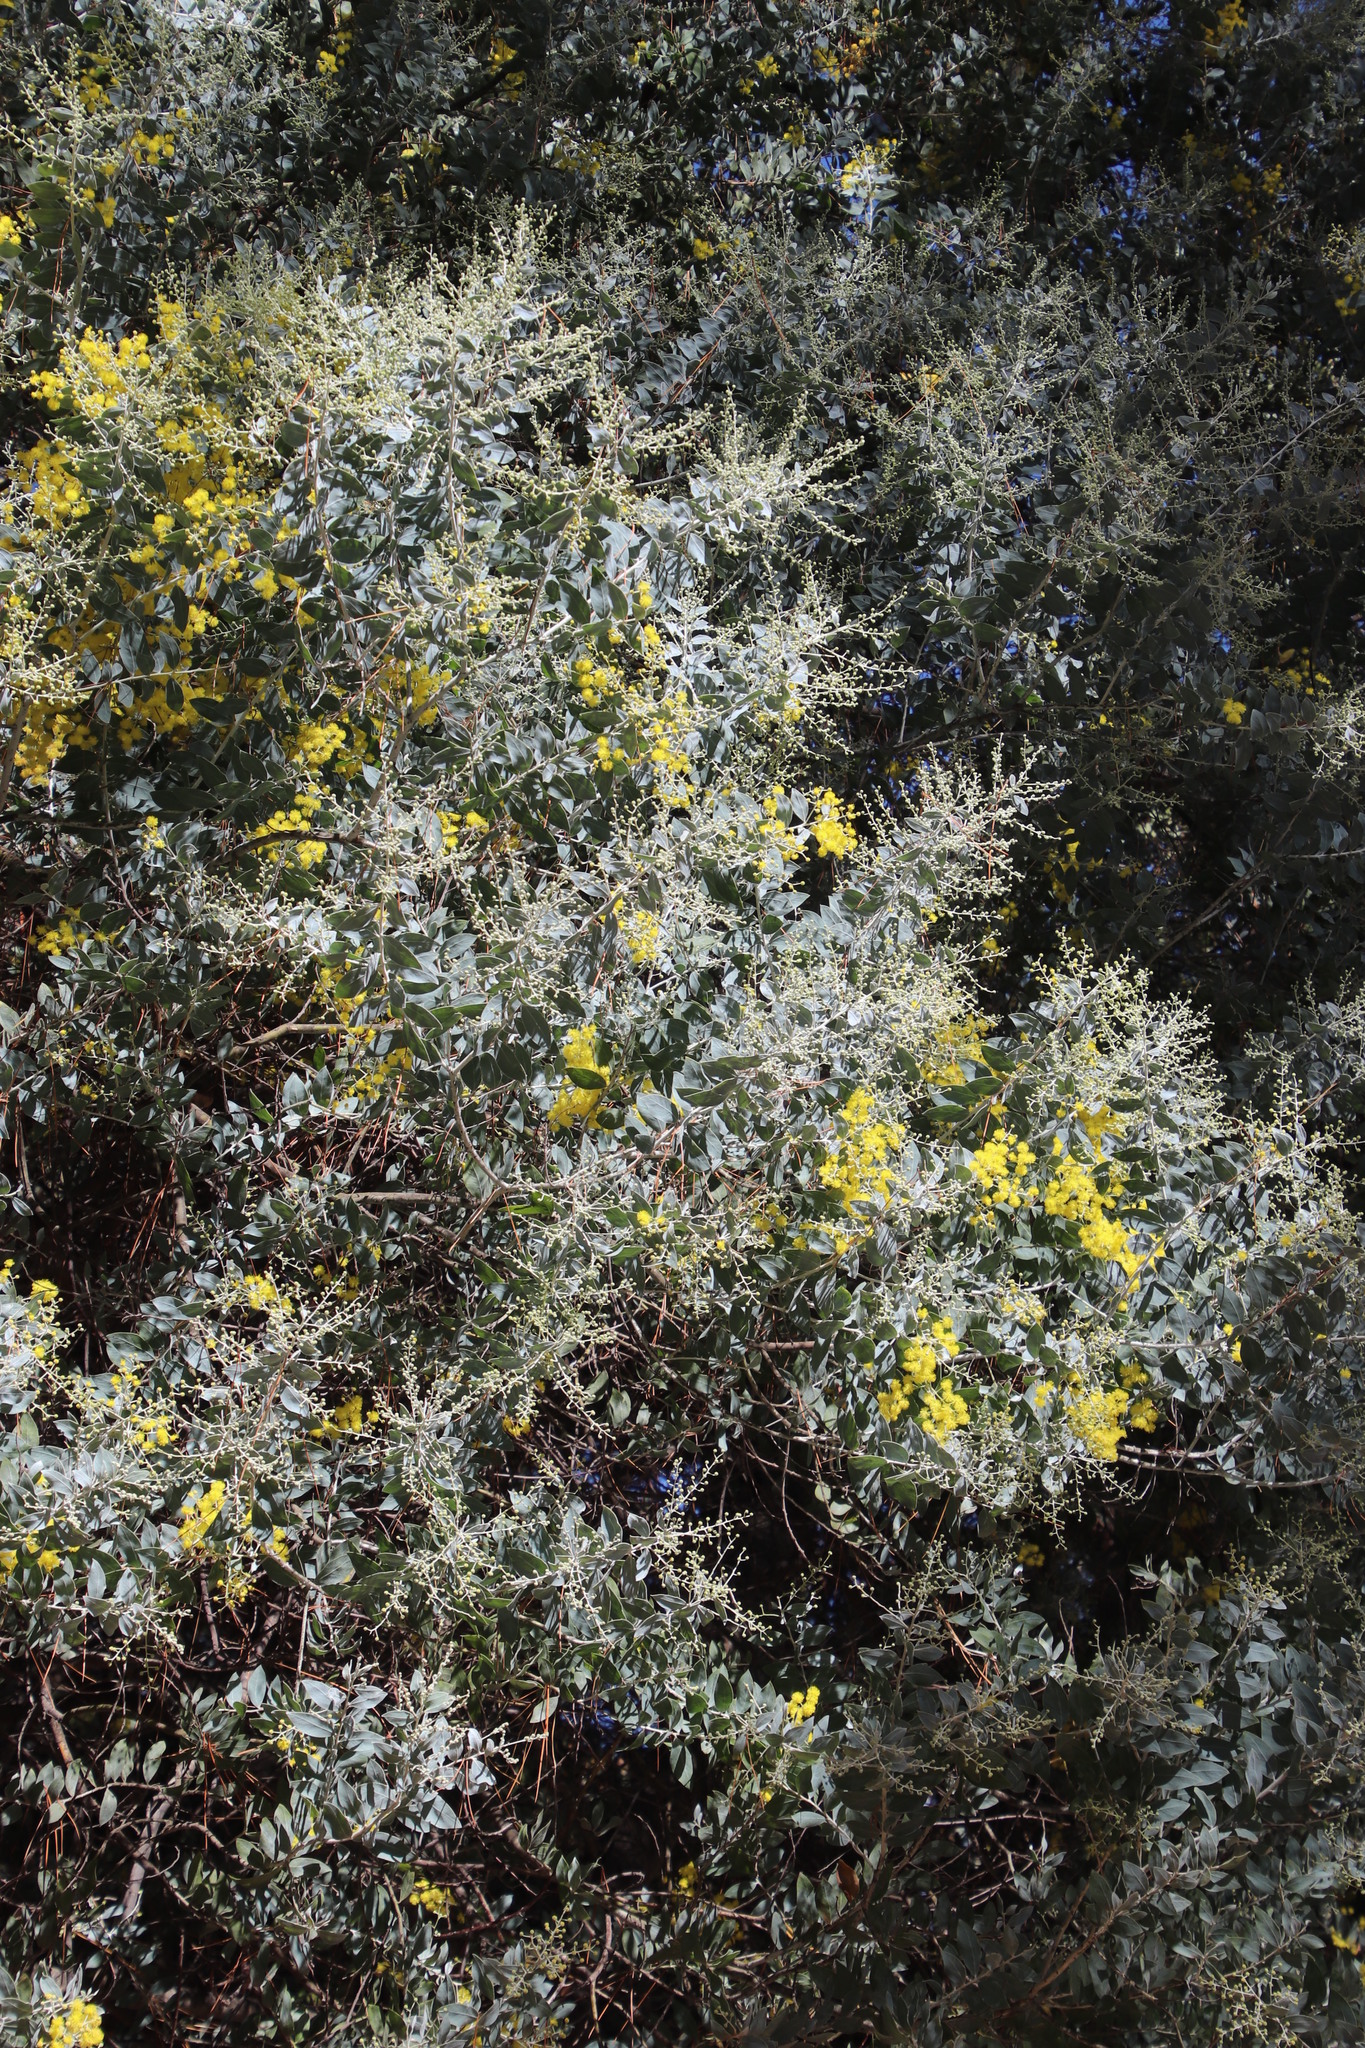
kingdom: Plantae
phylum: Tracheophyta
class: Magnoliopsida
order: Fabales
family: Fabaceae
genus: Acacia
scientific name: Acacia podalyriifolia
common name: Pearl wattle
